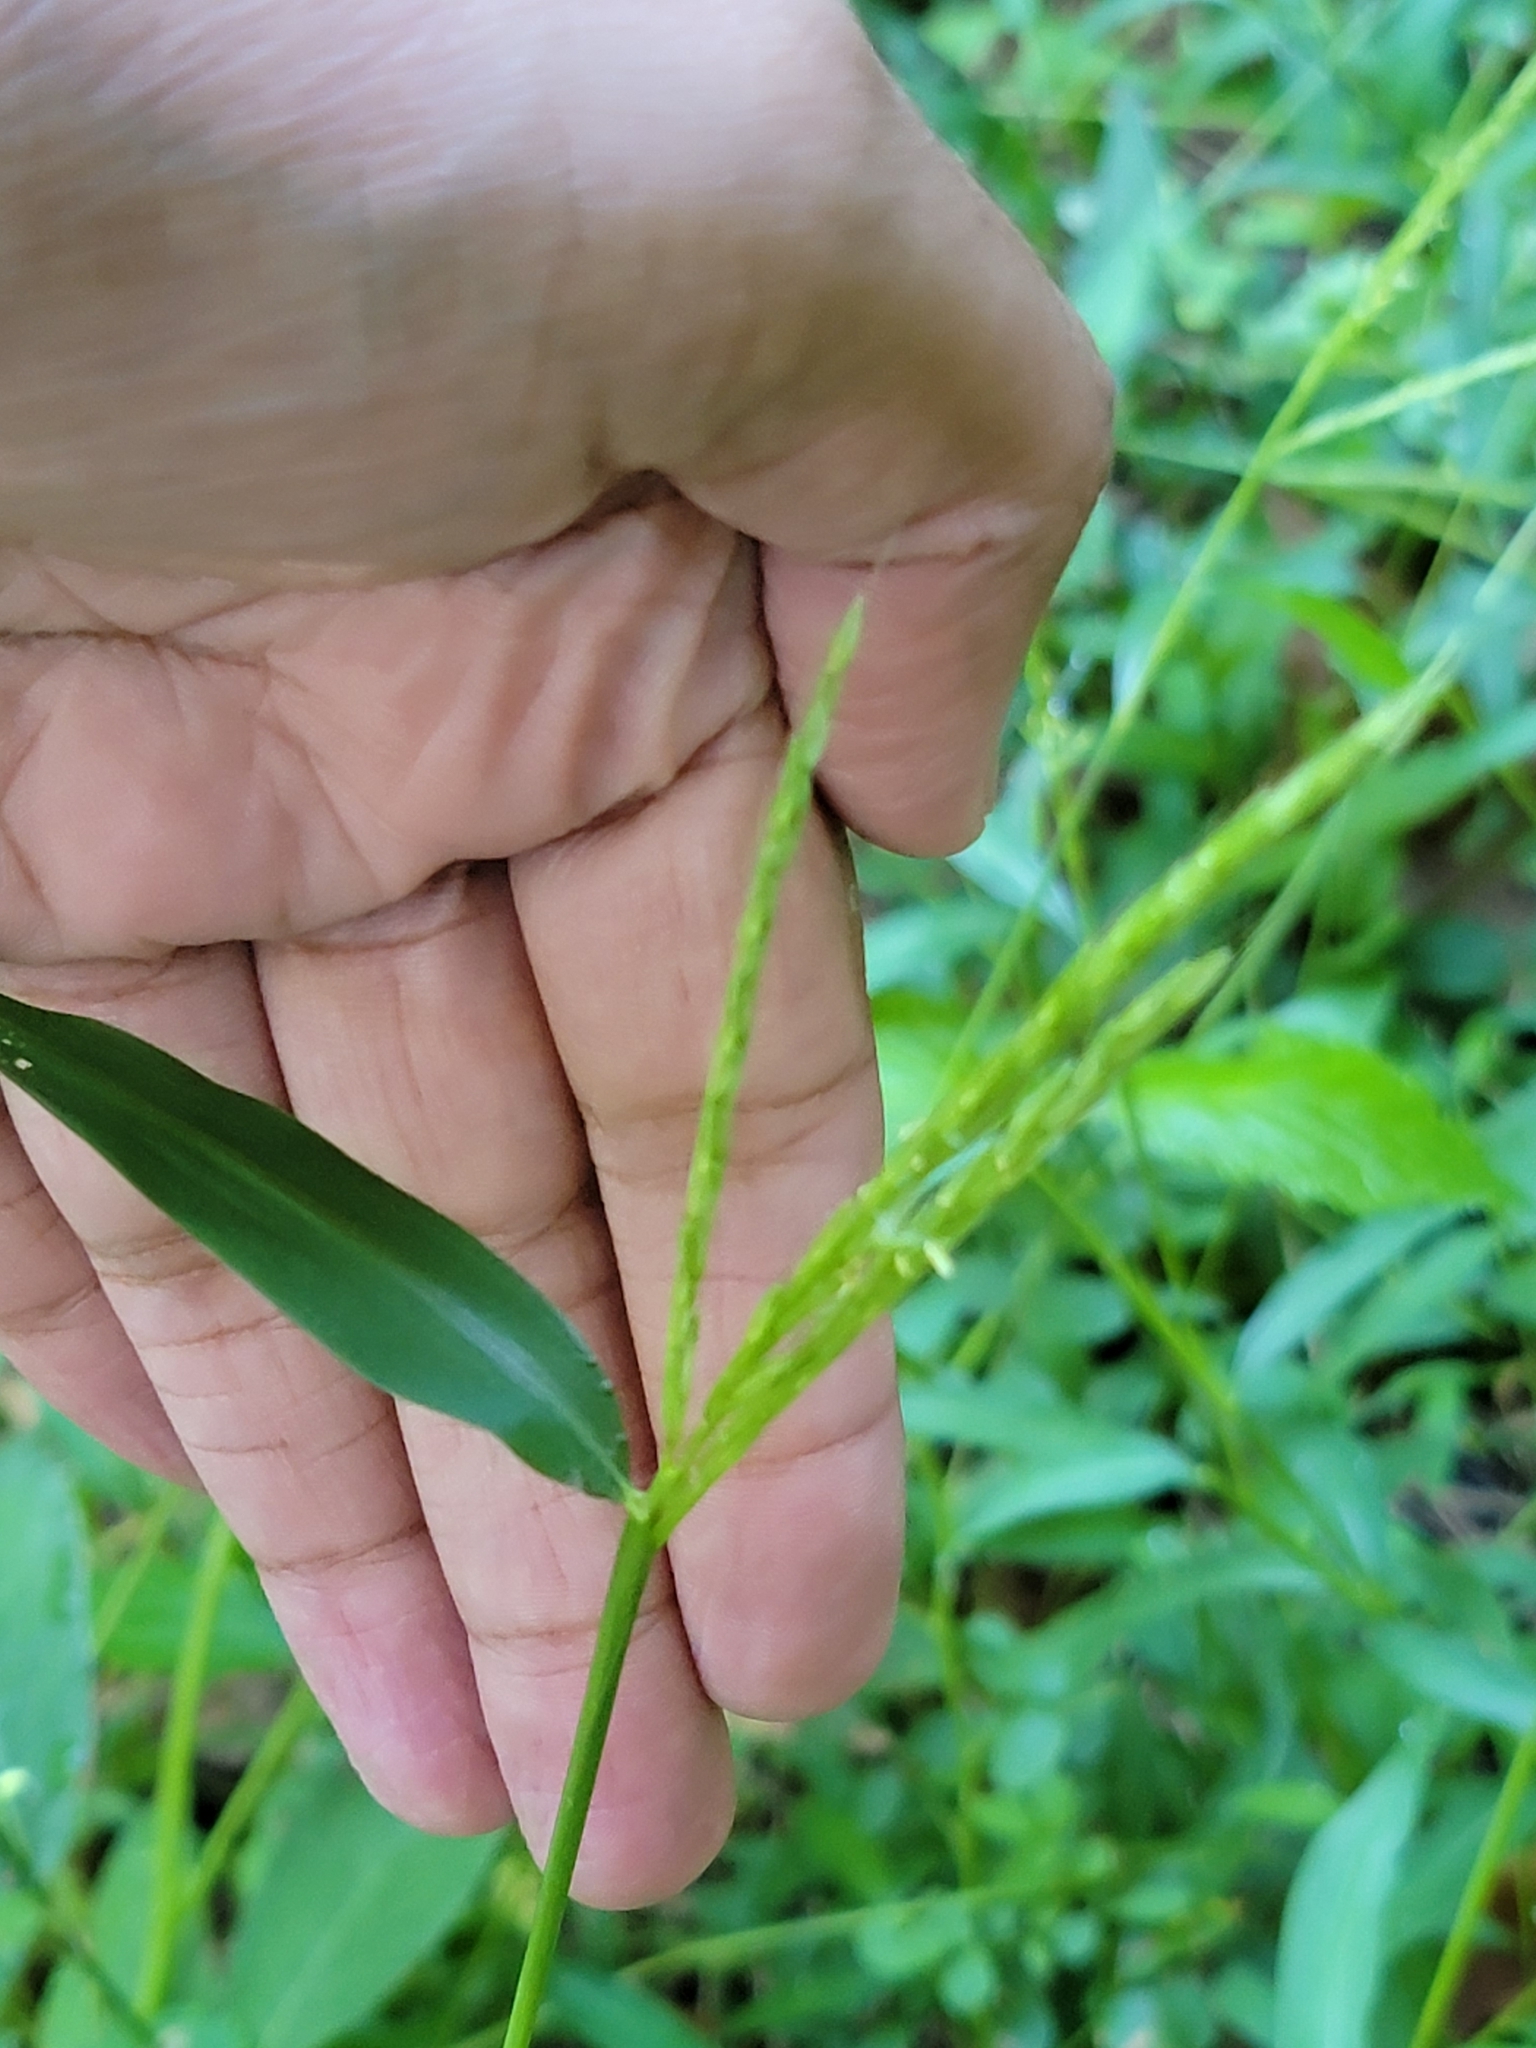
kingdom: Plantae
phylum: Tracheophyta
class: Liliopsida
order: Poales
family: Poaceae
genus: Microstegium
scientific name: Microstegium vimineum
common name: Japanese stiltgrass
